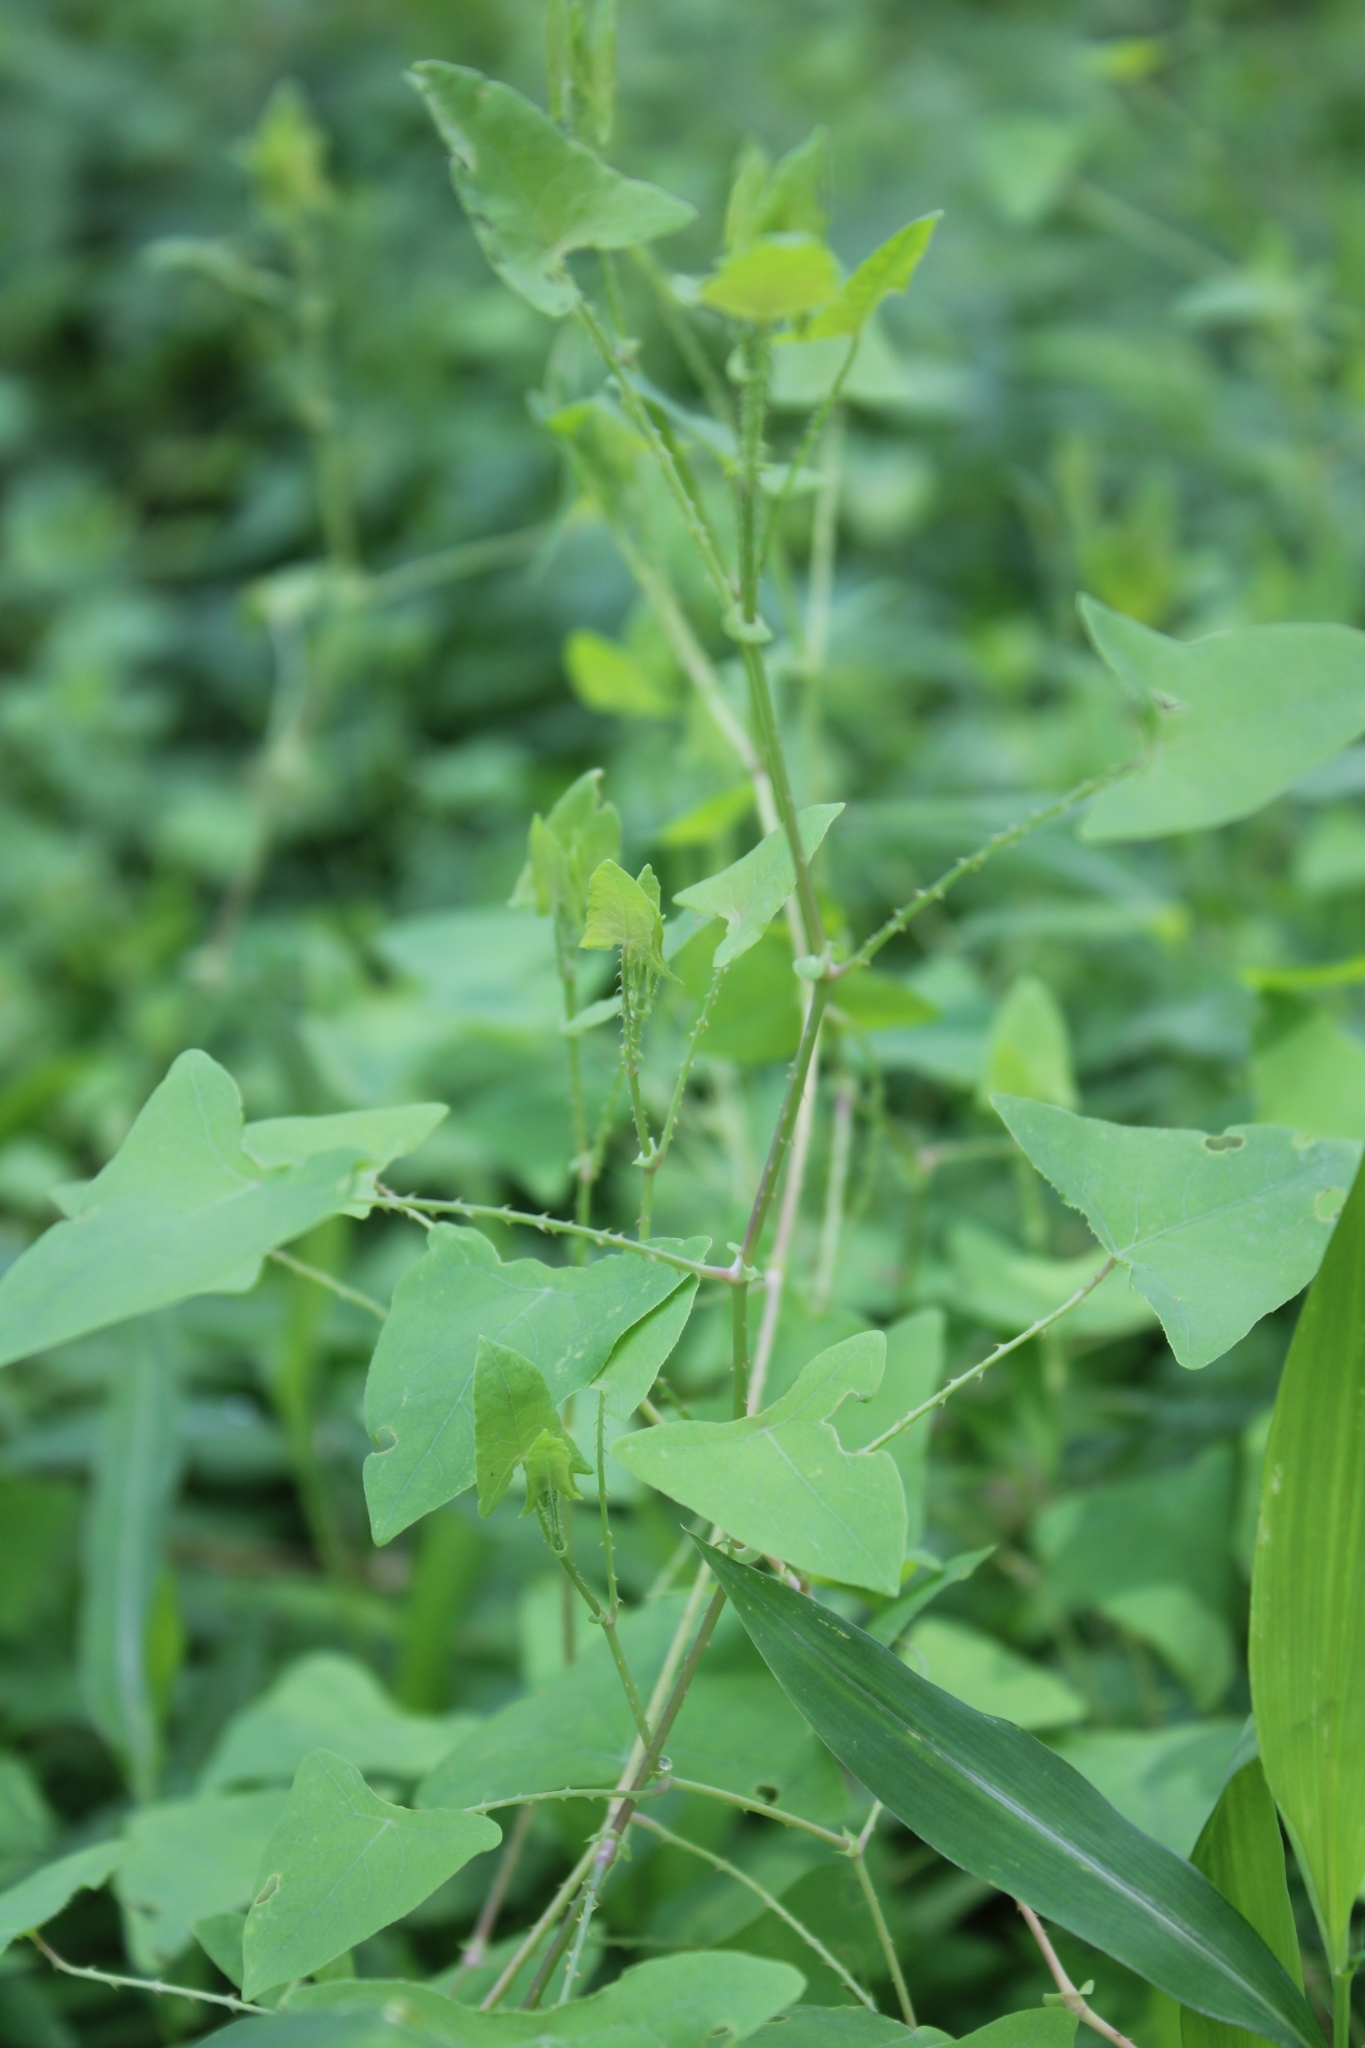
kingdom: Plantae
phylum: Tracheophyta
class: Magnoliopsida
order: Caryophyllales
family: Polygonaceae
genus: Persicaria
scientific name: Persicaria perfoliata
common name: Asiatic tearthumb
